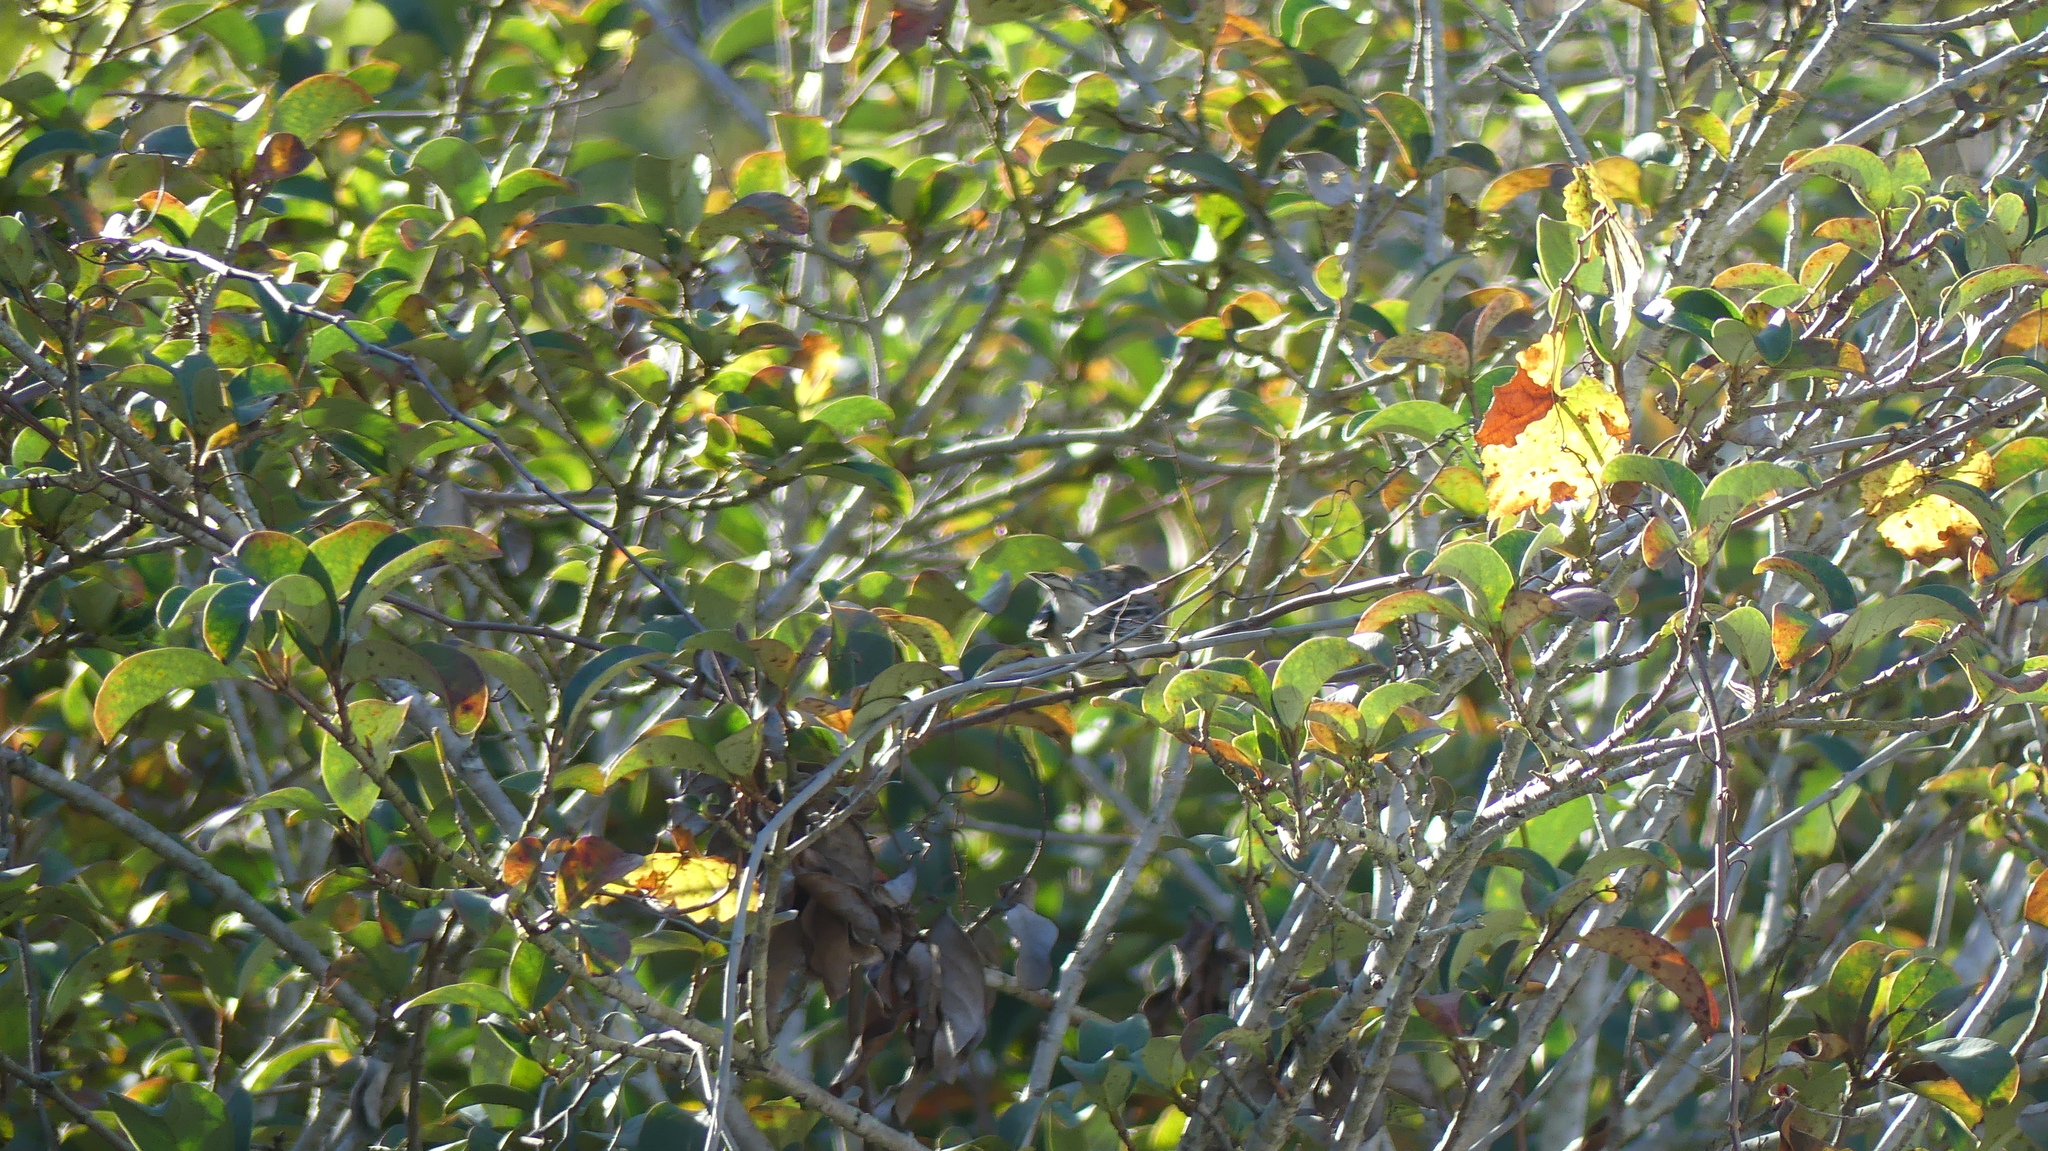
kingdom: Animalia
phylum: Chordata
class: Aves
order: Passeriformes
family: Parulidae
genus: Setophaga
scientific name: Setophaga coronata
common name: Myrtle warbler
